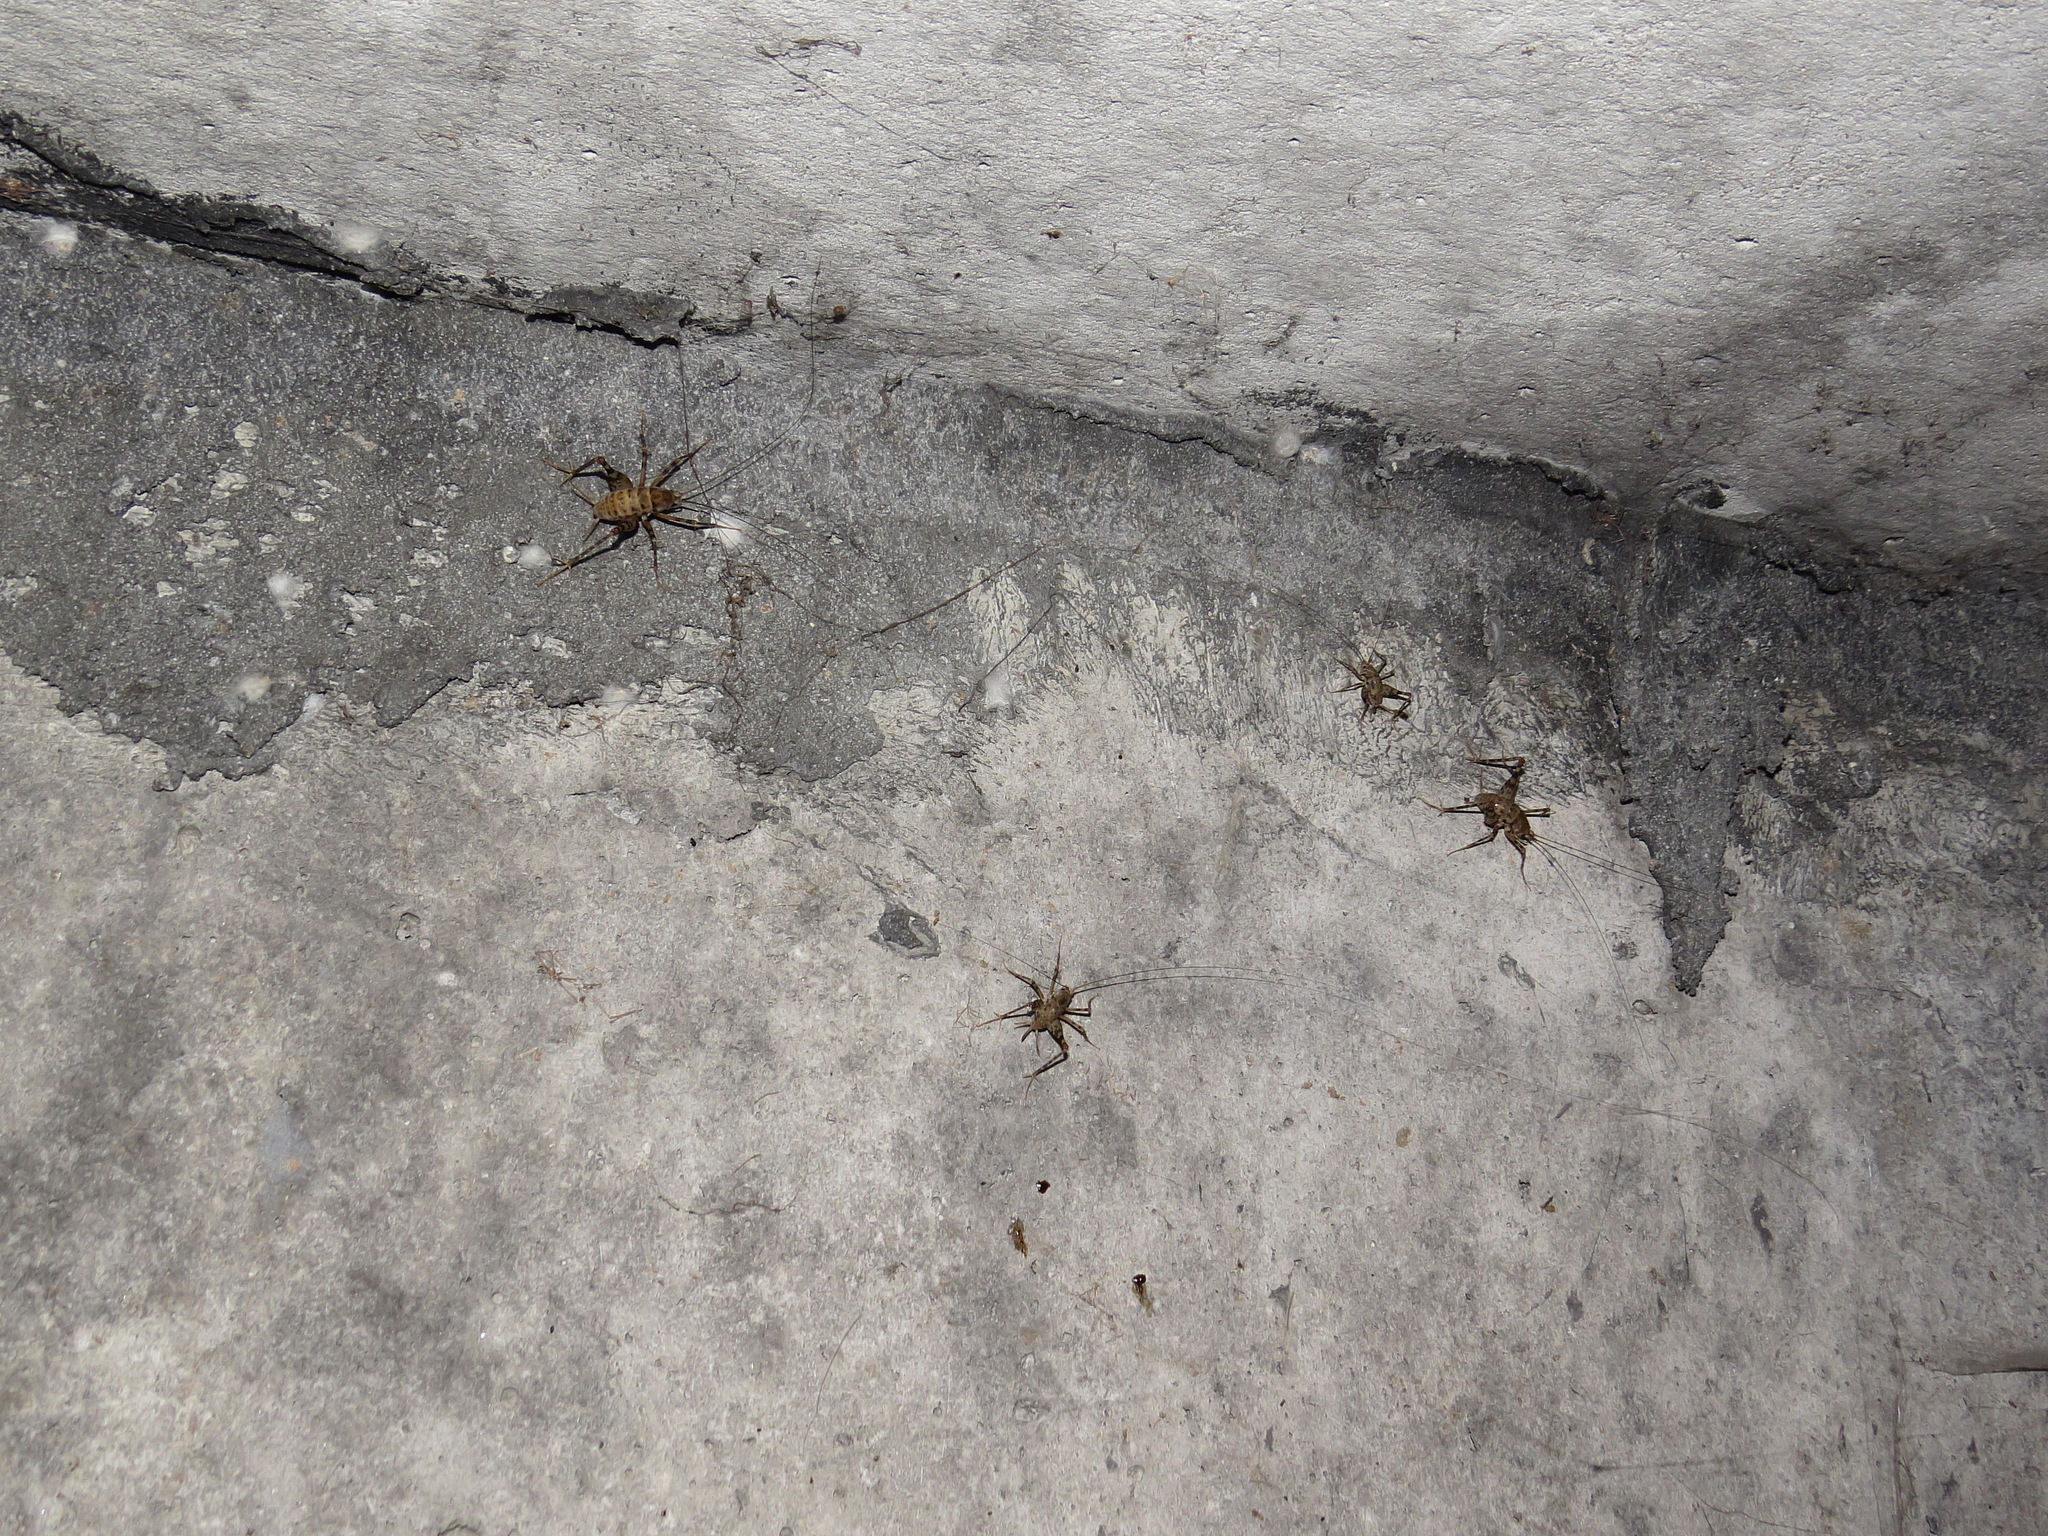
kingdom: Animalia
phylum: Arthropoda
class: Insecta
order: Orthoptera
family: Rhaphidophoridae
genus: Tachycines
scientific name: Tachycines asynamorus
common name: Greenhouse camel cricket
